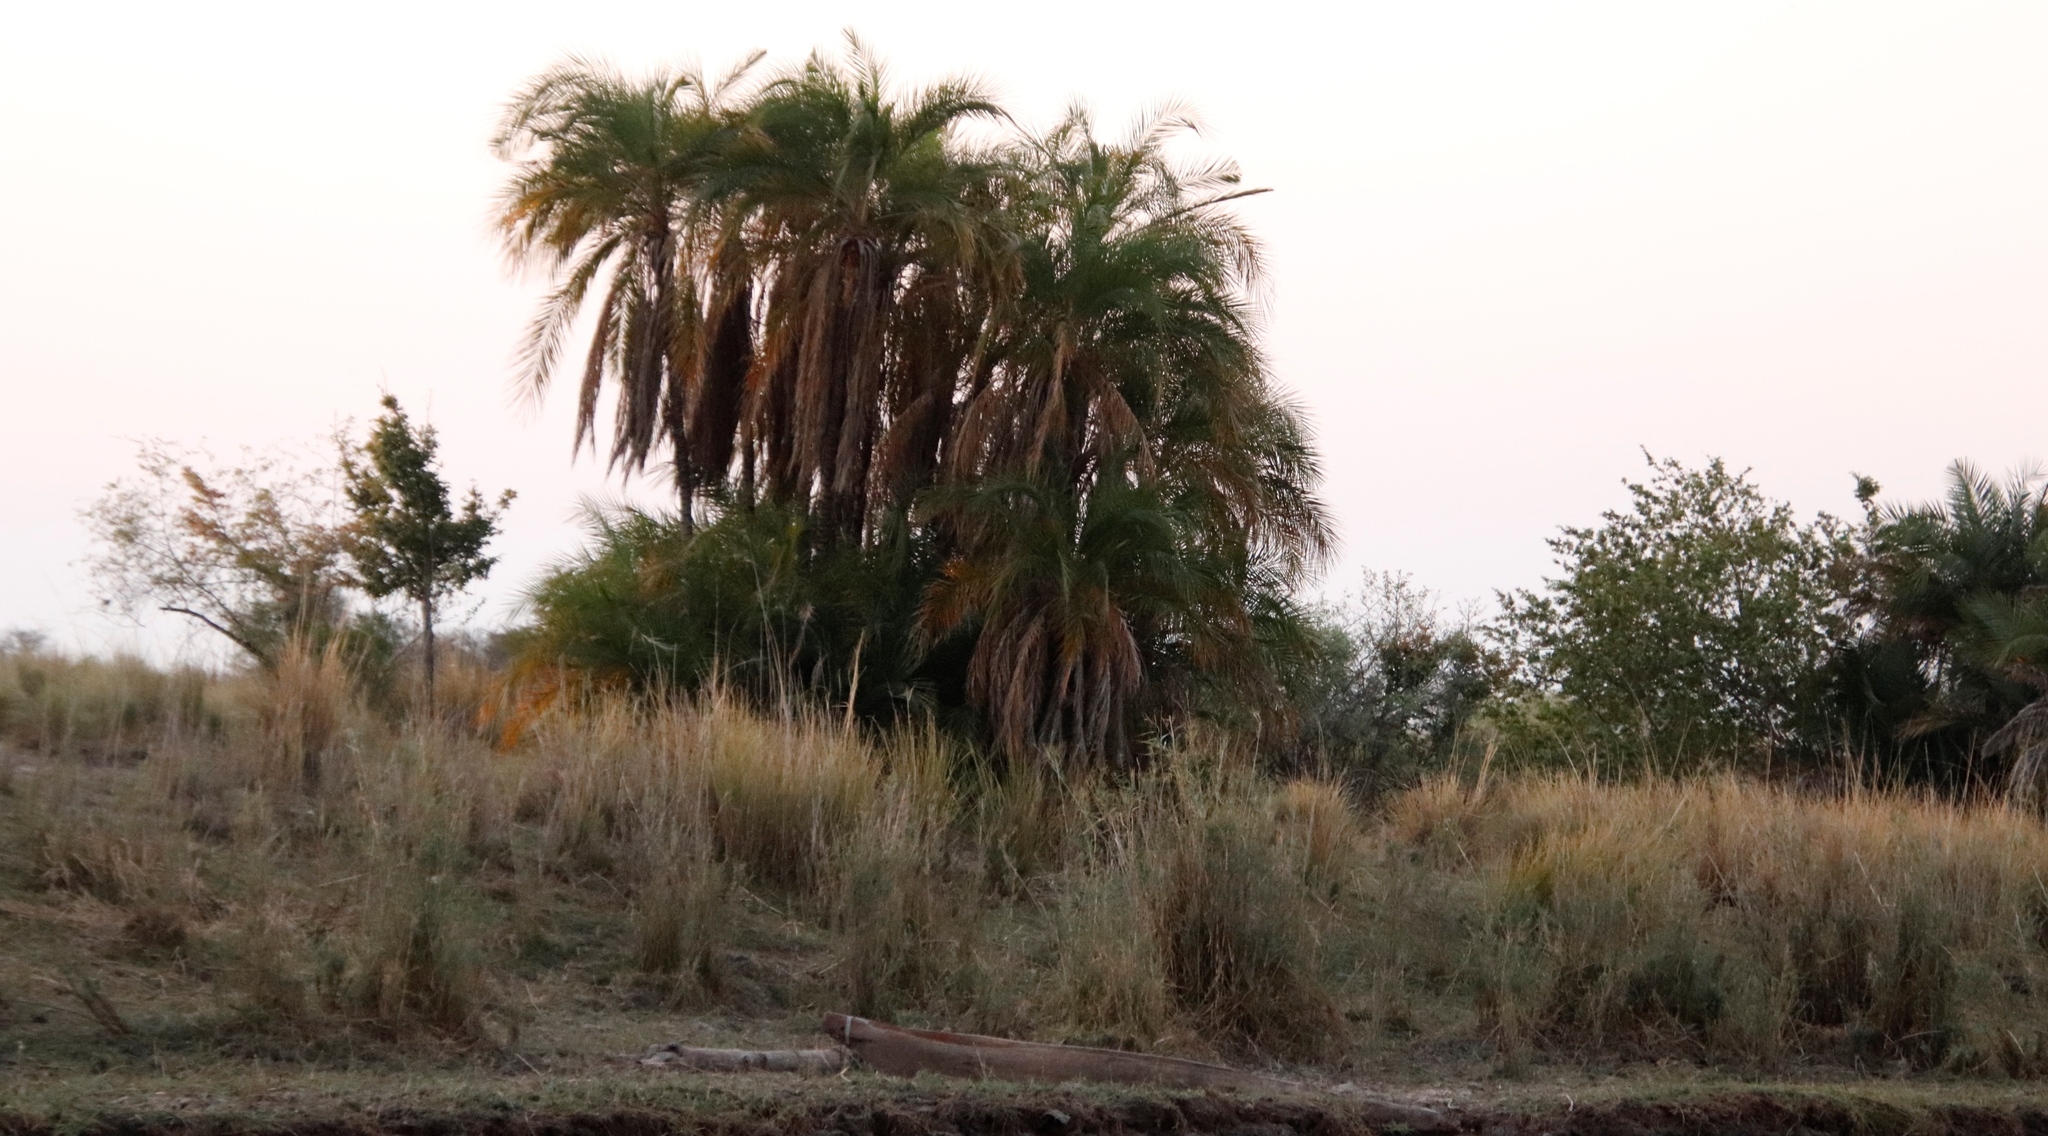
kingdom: Plantae
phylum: Tracheophyta
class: Liliopsida
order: Arecales
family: Arecaceae
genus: Phoenix
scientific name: Phoenix reclinata
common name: Senegal date palm
